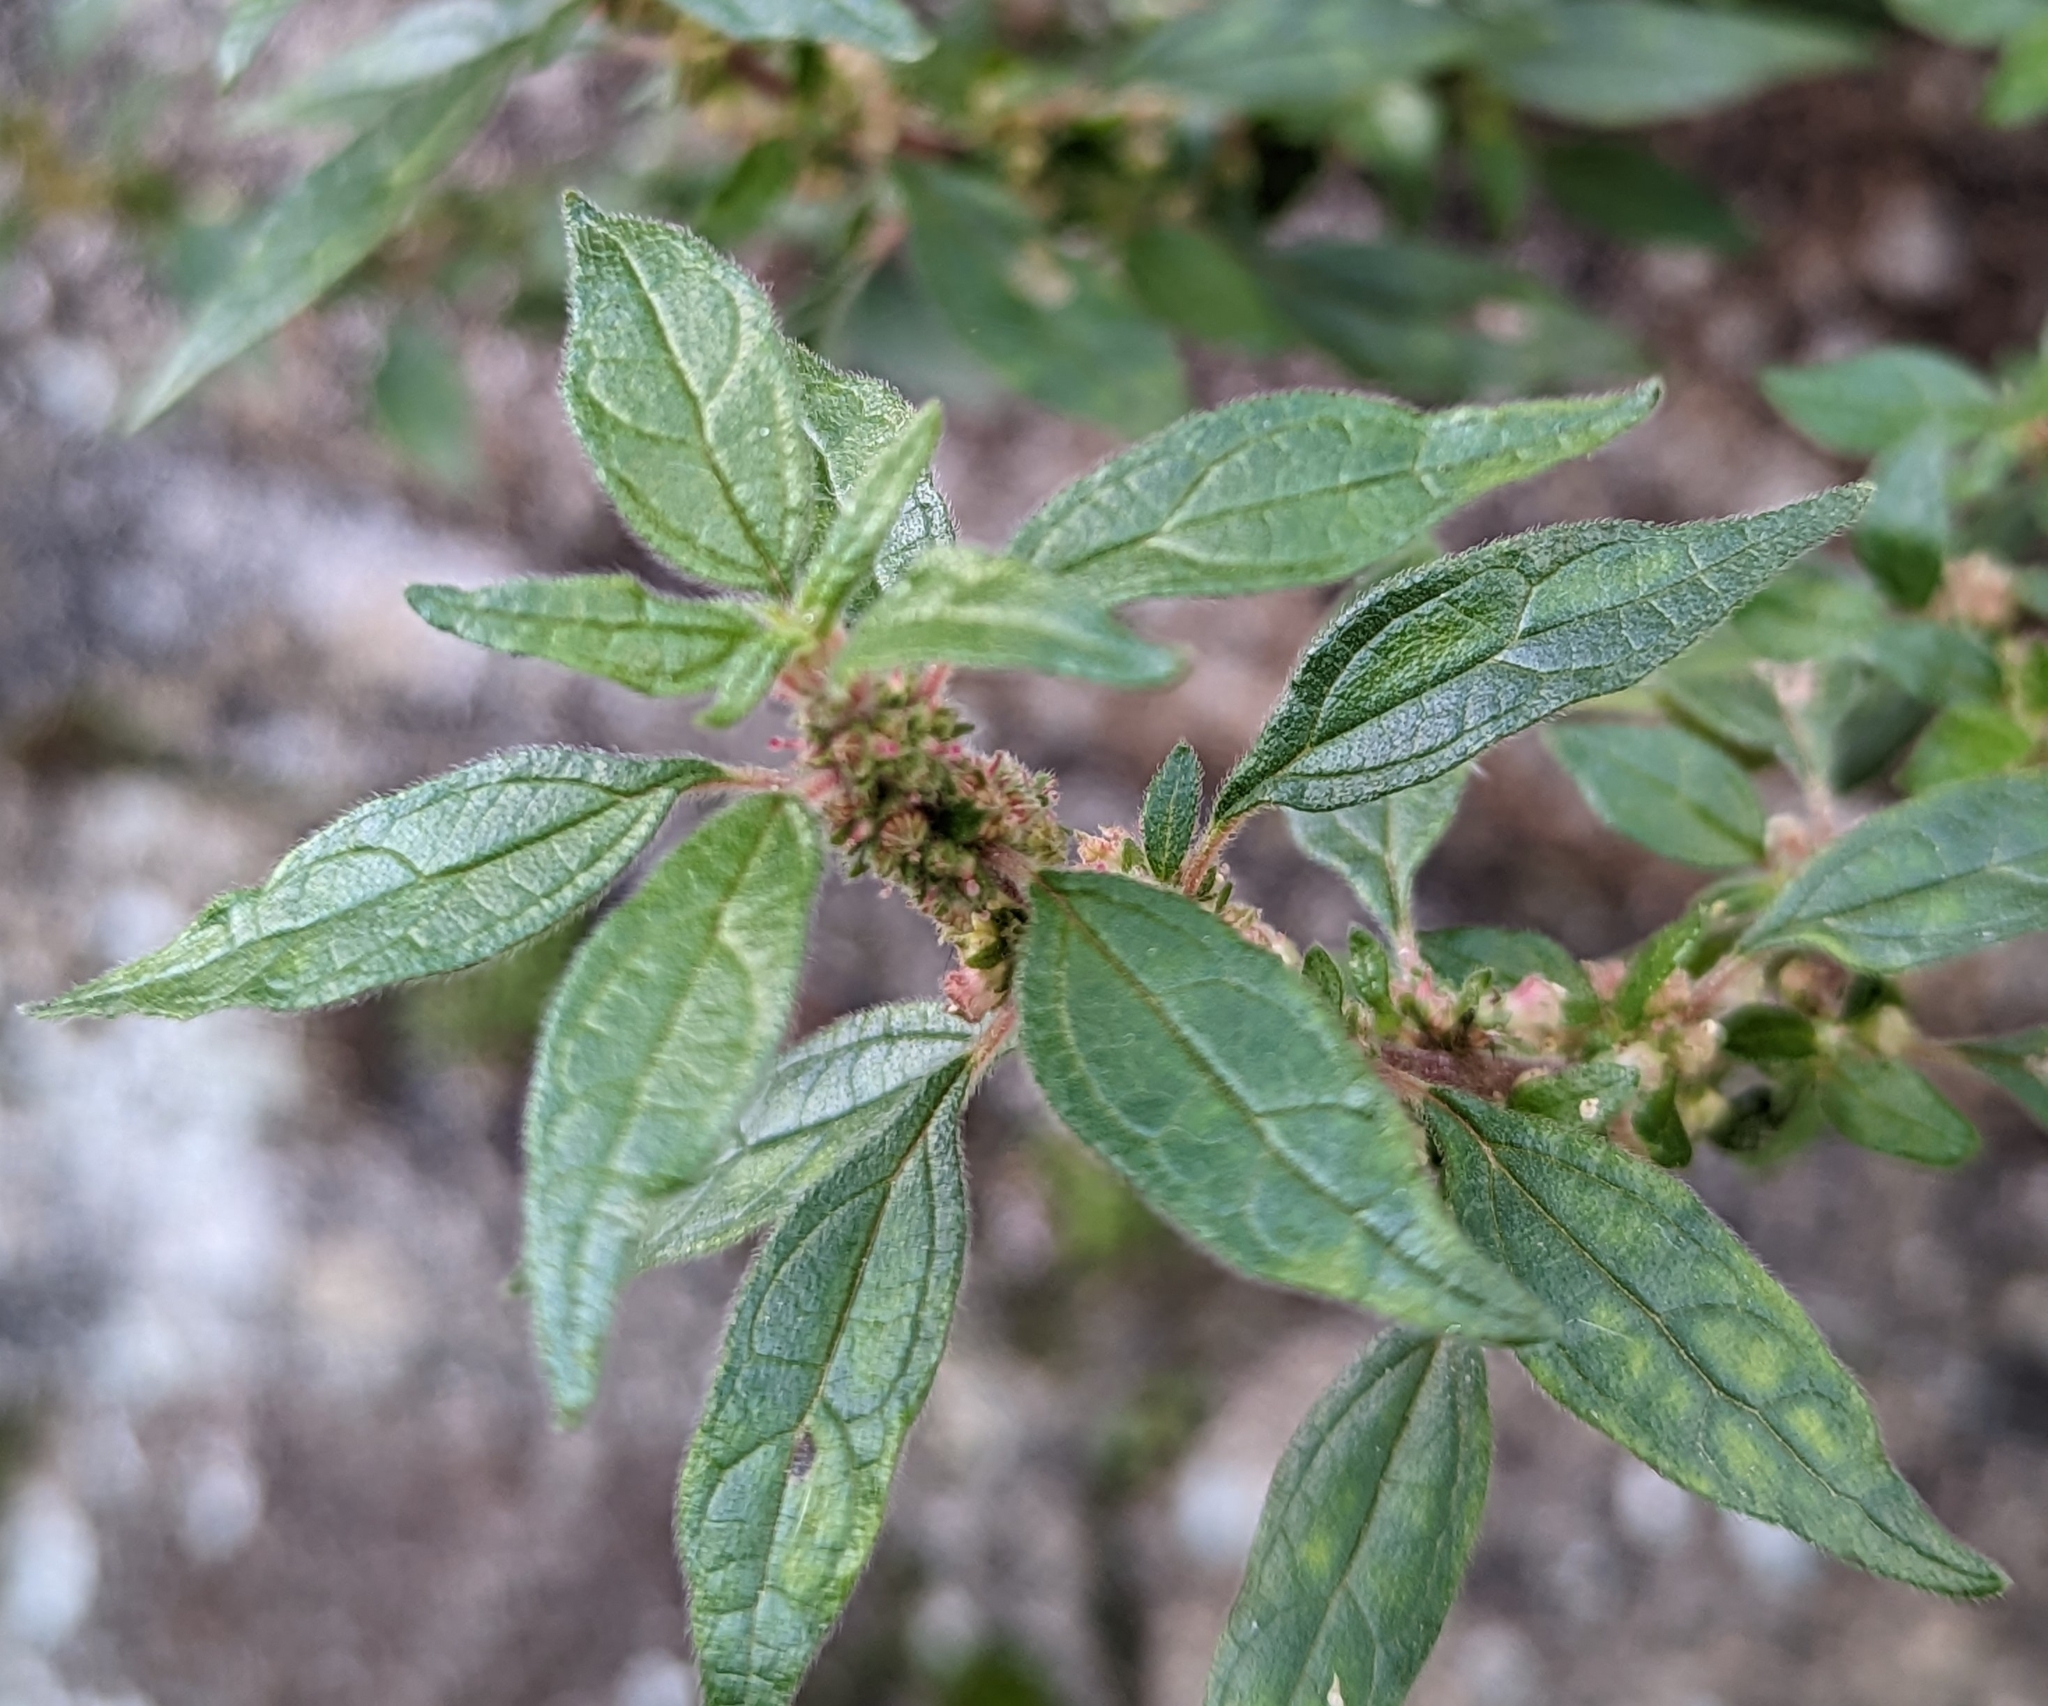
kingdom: Plantae
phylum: Tracheophyta
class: Magnoliopsida
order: Rosales
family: Urticaceae
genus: Parietaria
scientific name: Parietaria judaica
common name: Pellitory-of-the-wall
